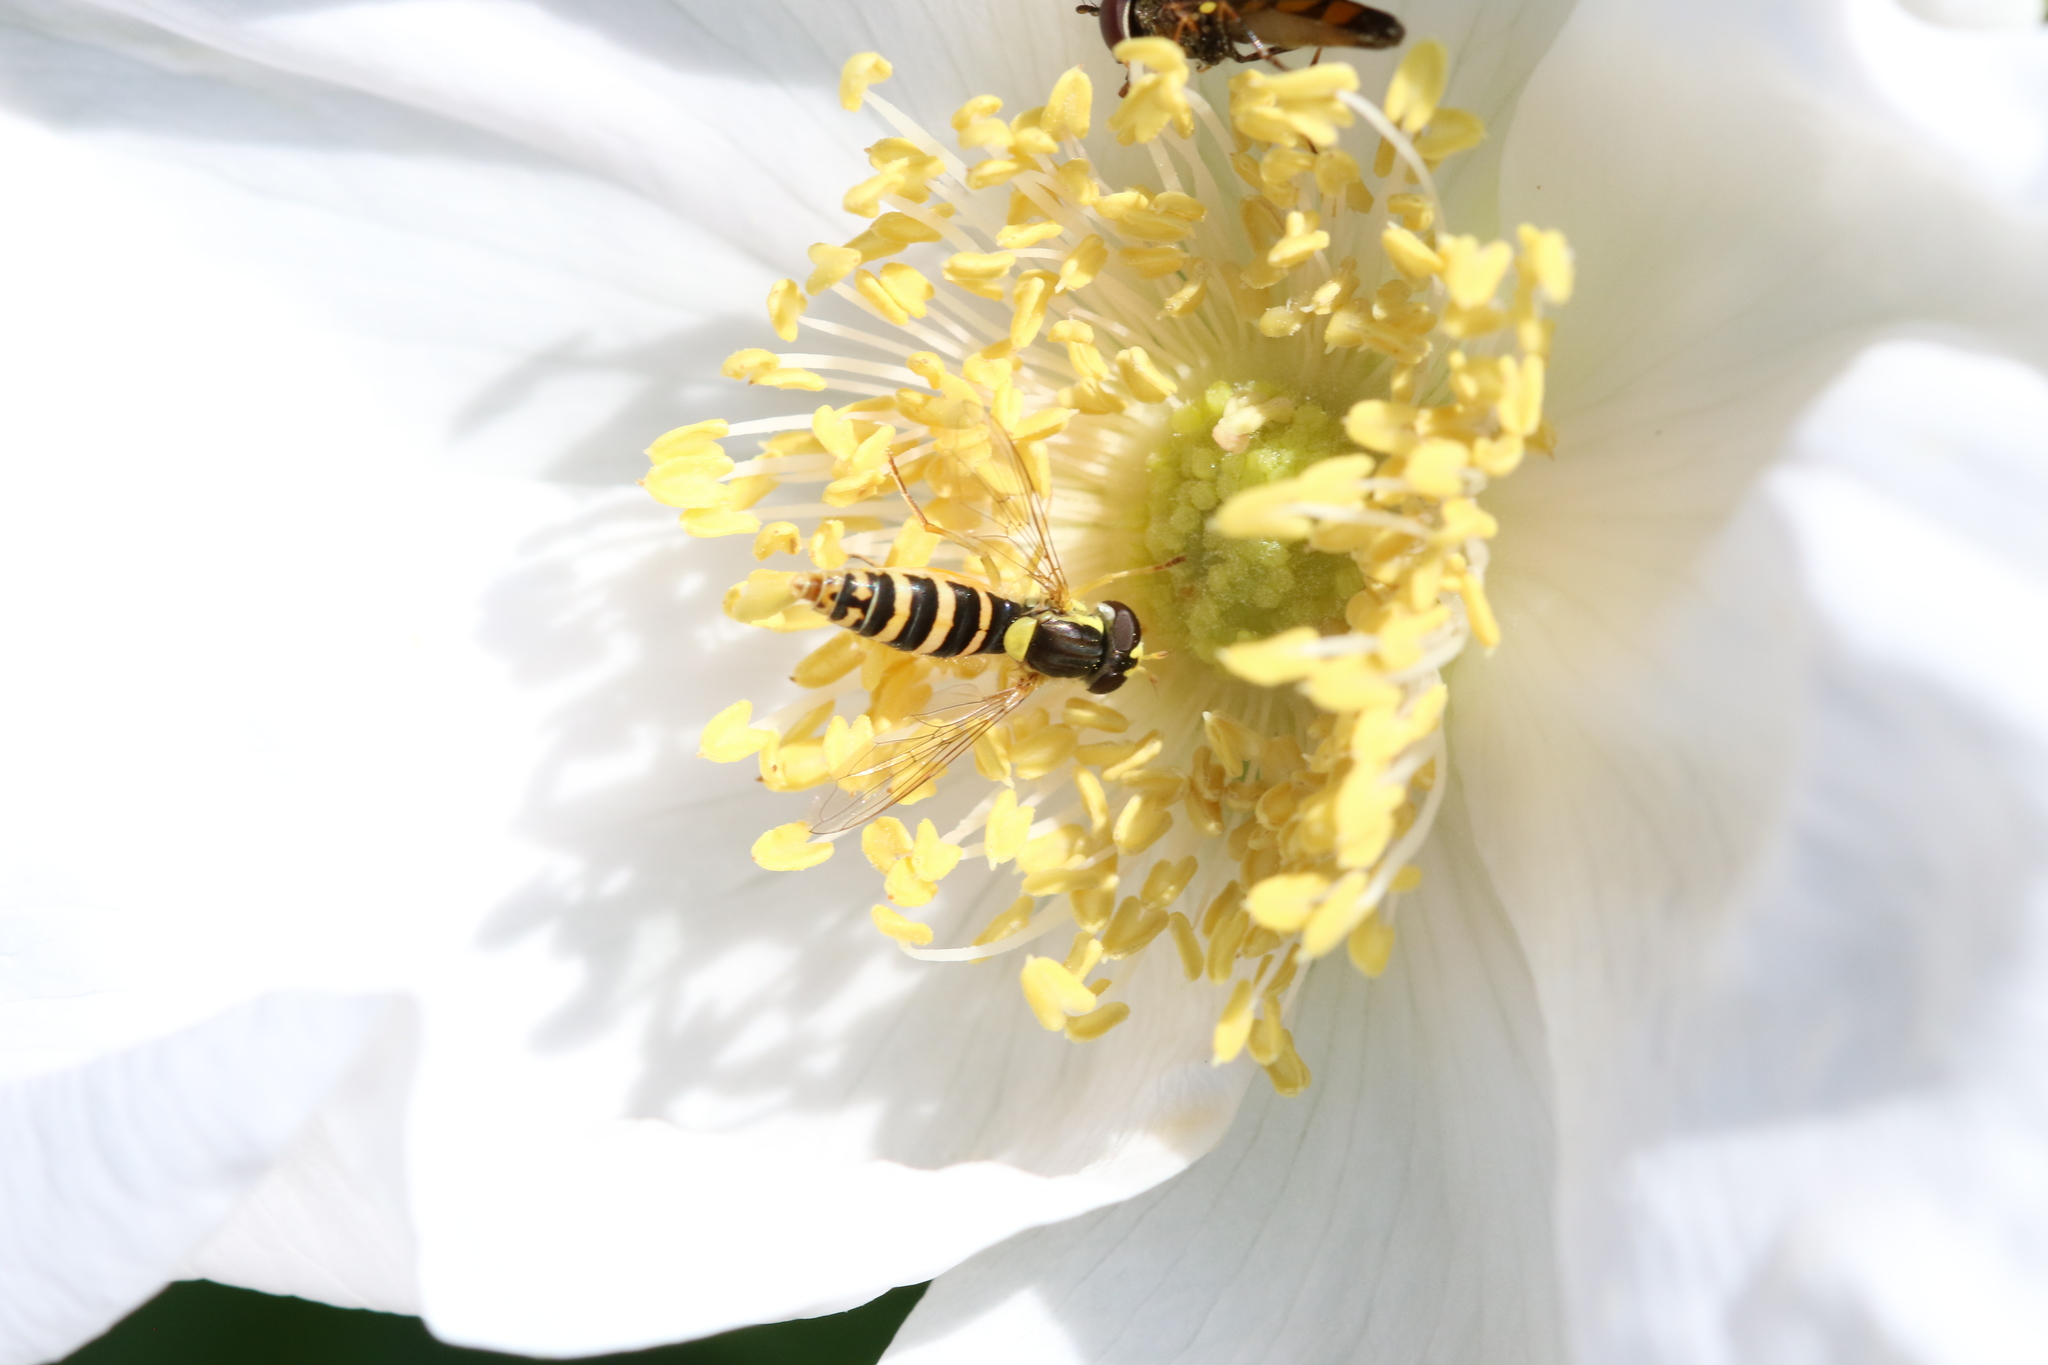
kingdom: Animalia
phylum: Arthropoda
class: Insecta
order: Diptera
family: Syrphidae
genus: Sphaerophoria
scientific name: Sphaerophoria
